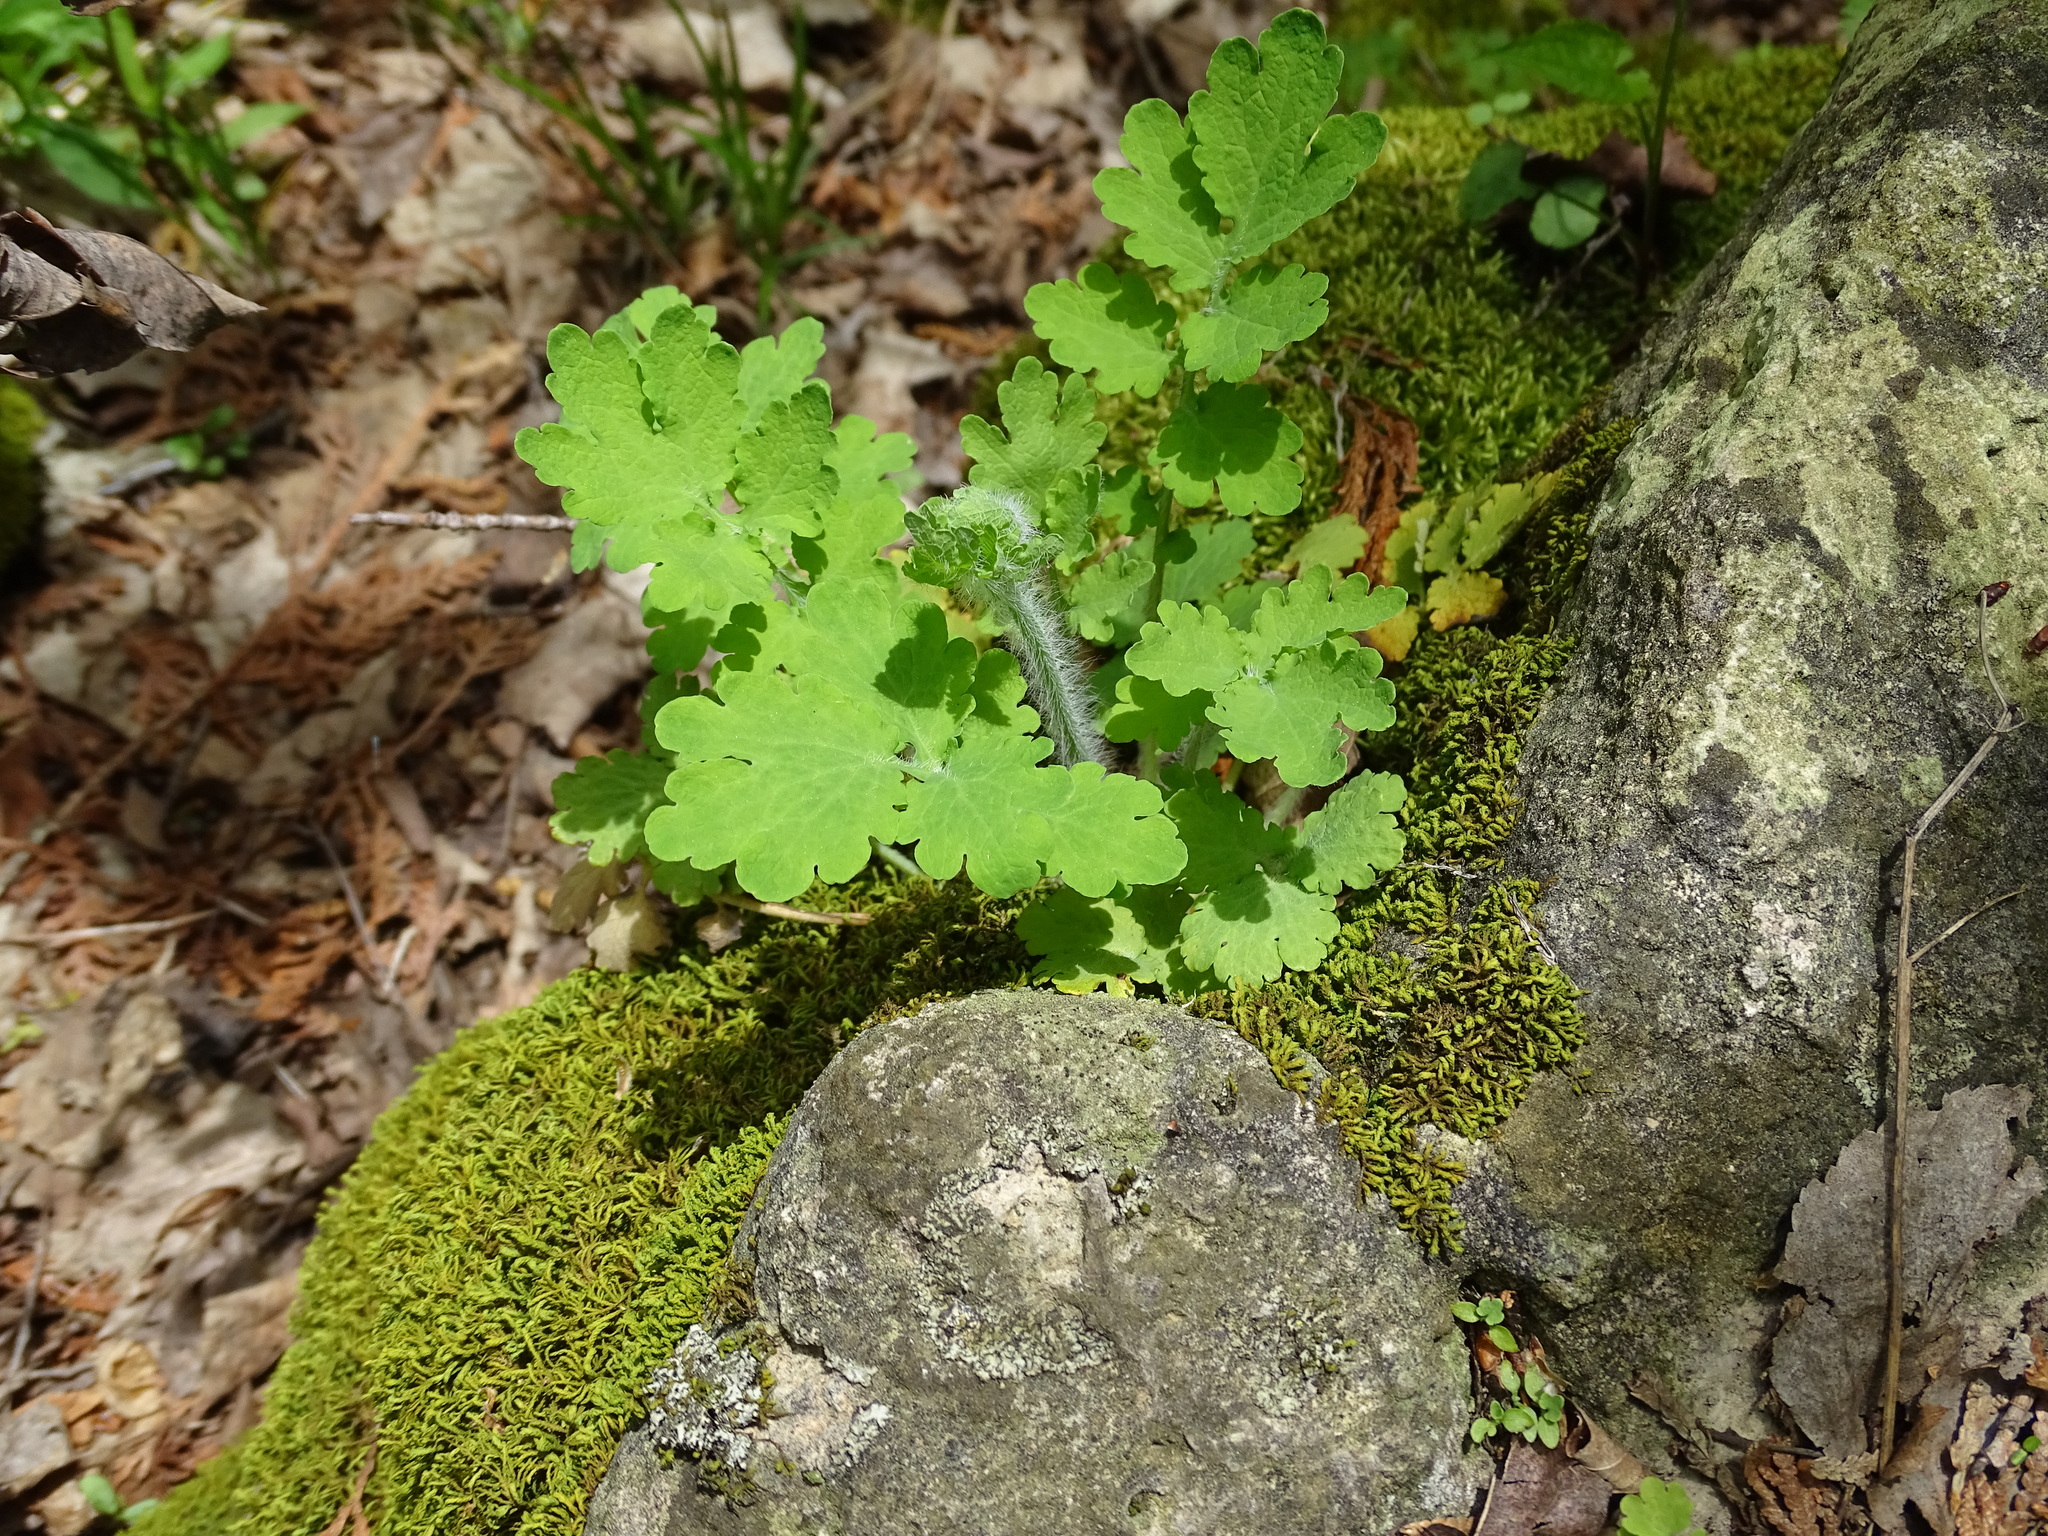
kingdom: Plantae
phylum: Tracheophyta
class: Magnoliopsida
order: Ranunculales
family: Papaveraceae
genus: Chelidonium
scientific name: Chelidonium majus
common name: Greater celandine
